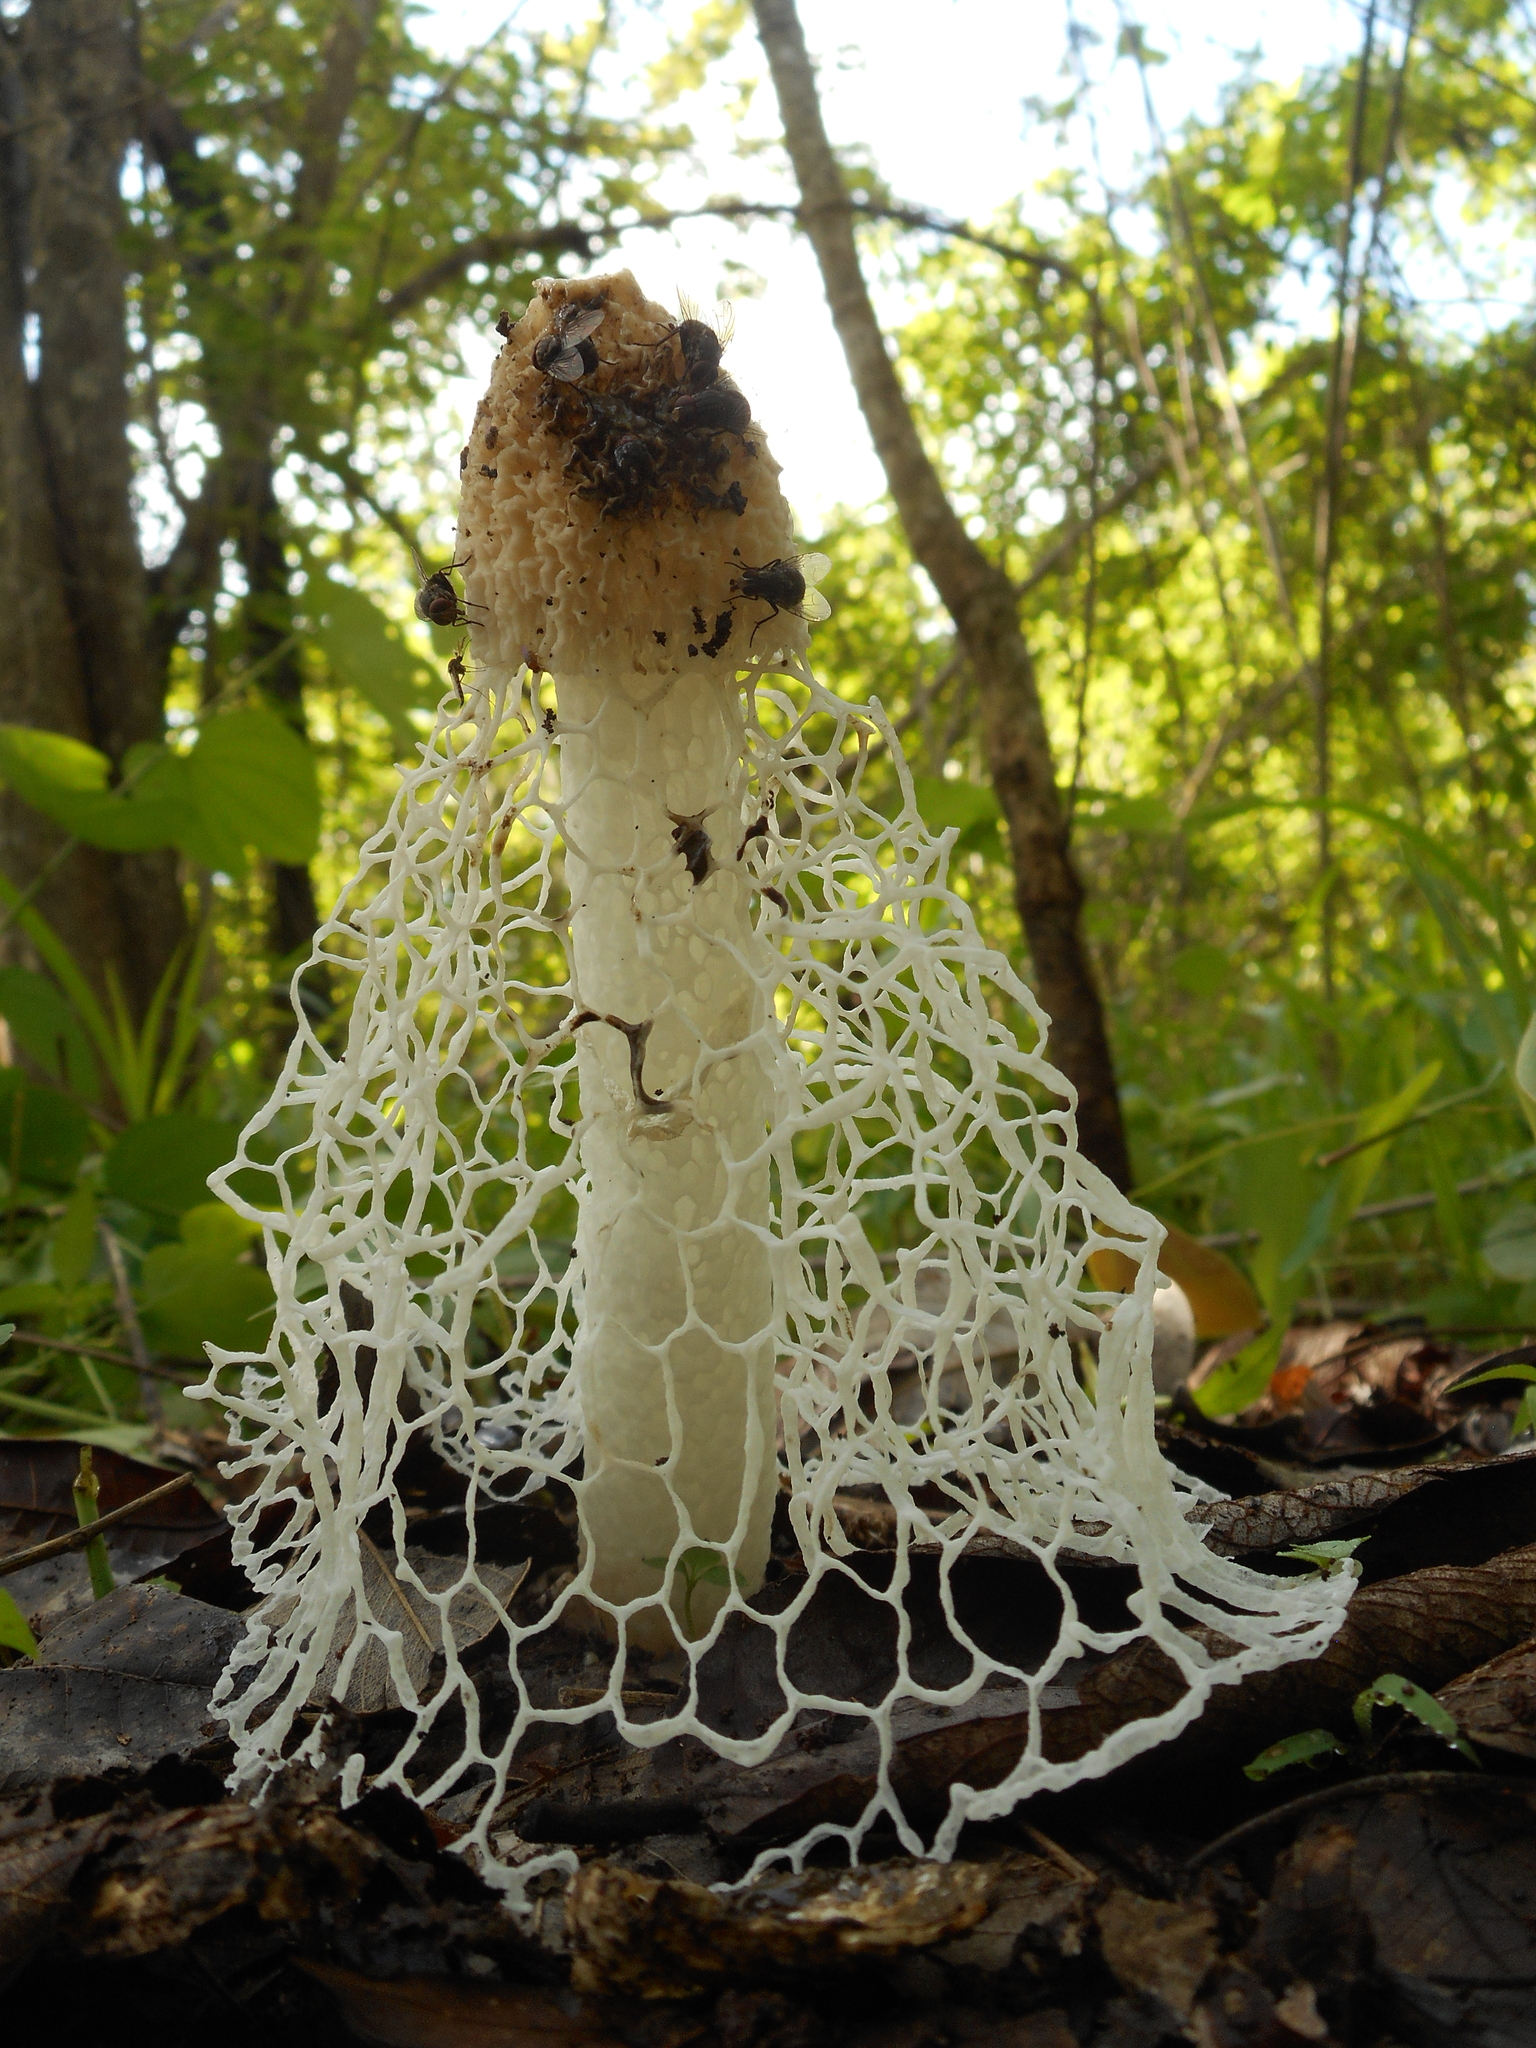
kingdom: Fungi
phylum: Basidiomycota
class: Agaricomycetes
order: Phallales
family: Phallaceae
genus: Phallus
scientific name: Phallus indusiatus
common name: Bridal veil stinkhorn
